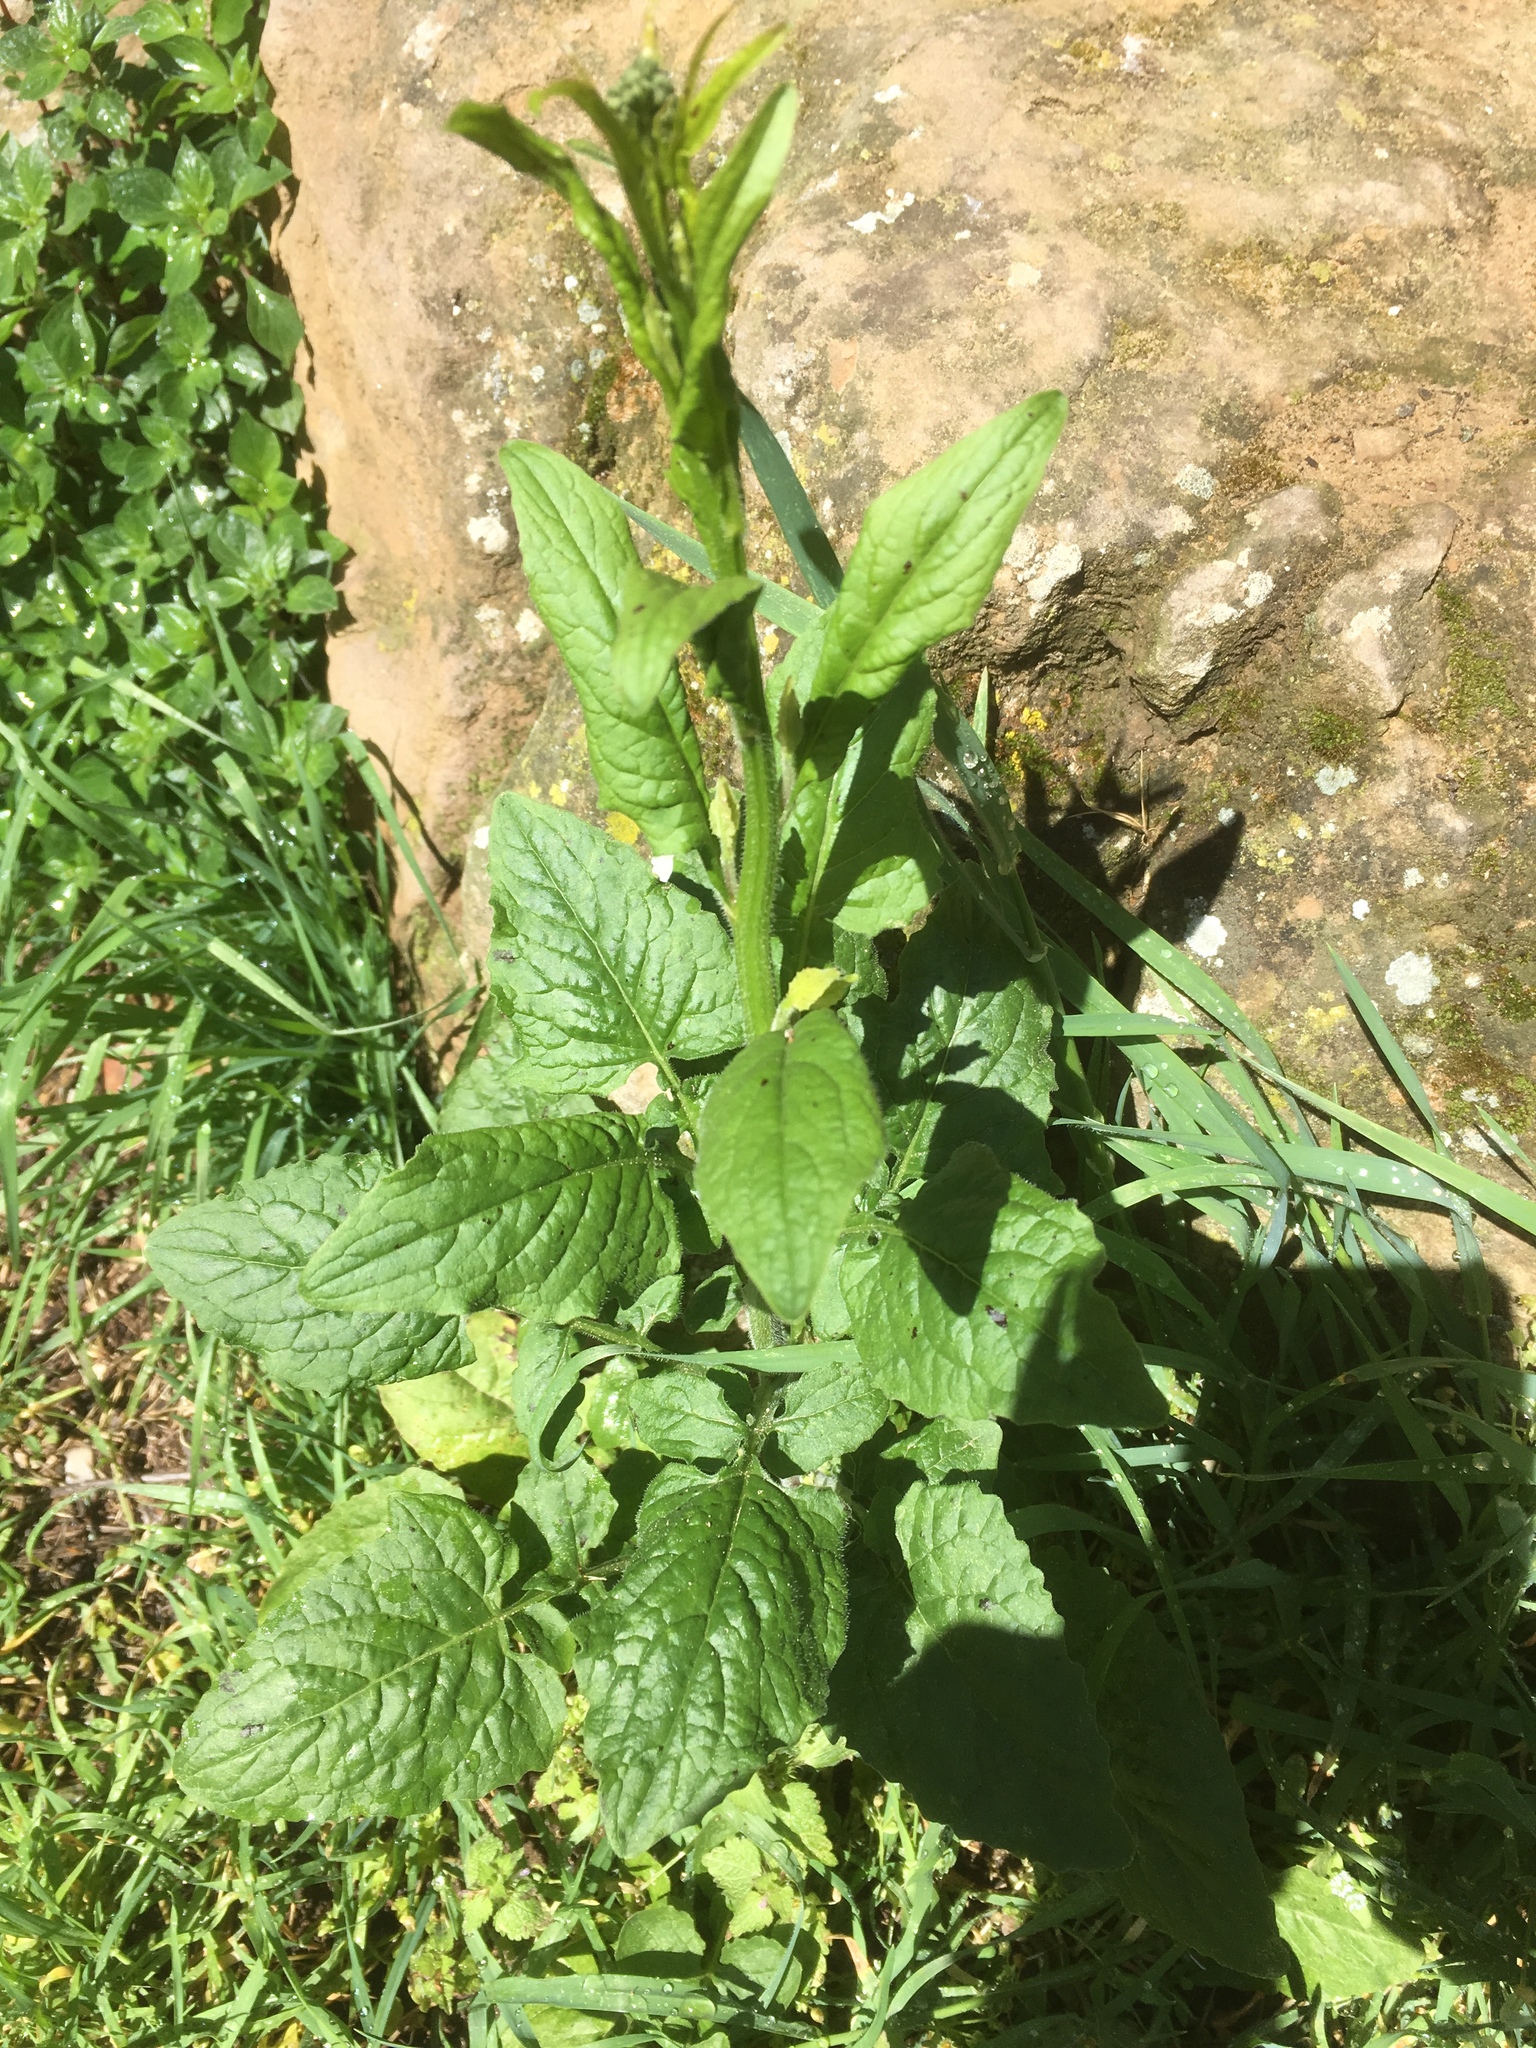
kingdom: Plantae
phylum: Tracheophyta
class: Magnoliopsida
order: Asterales
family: Asteraceae
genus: Lapsana
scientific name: Lapsana communis
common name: Nipplewort
